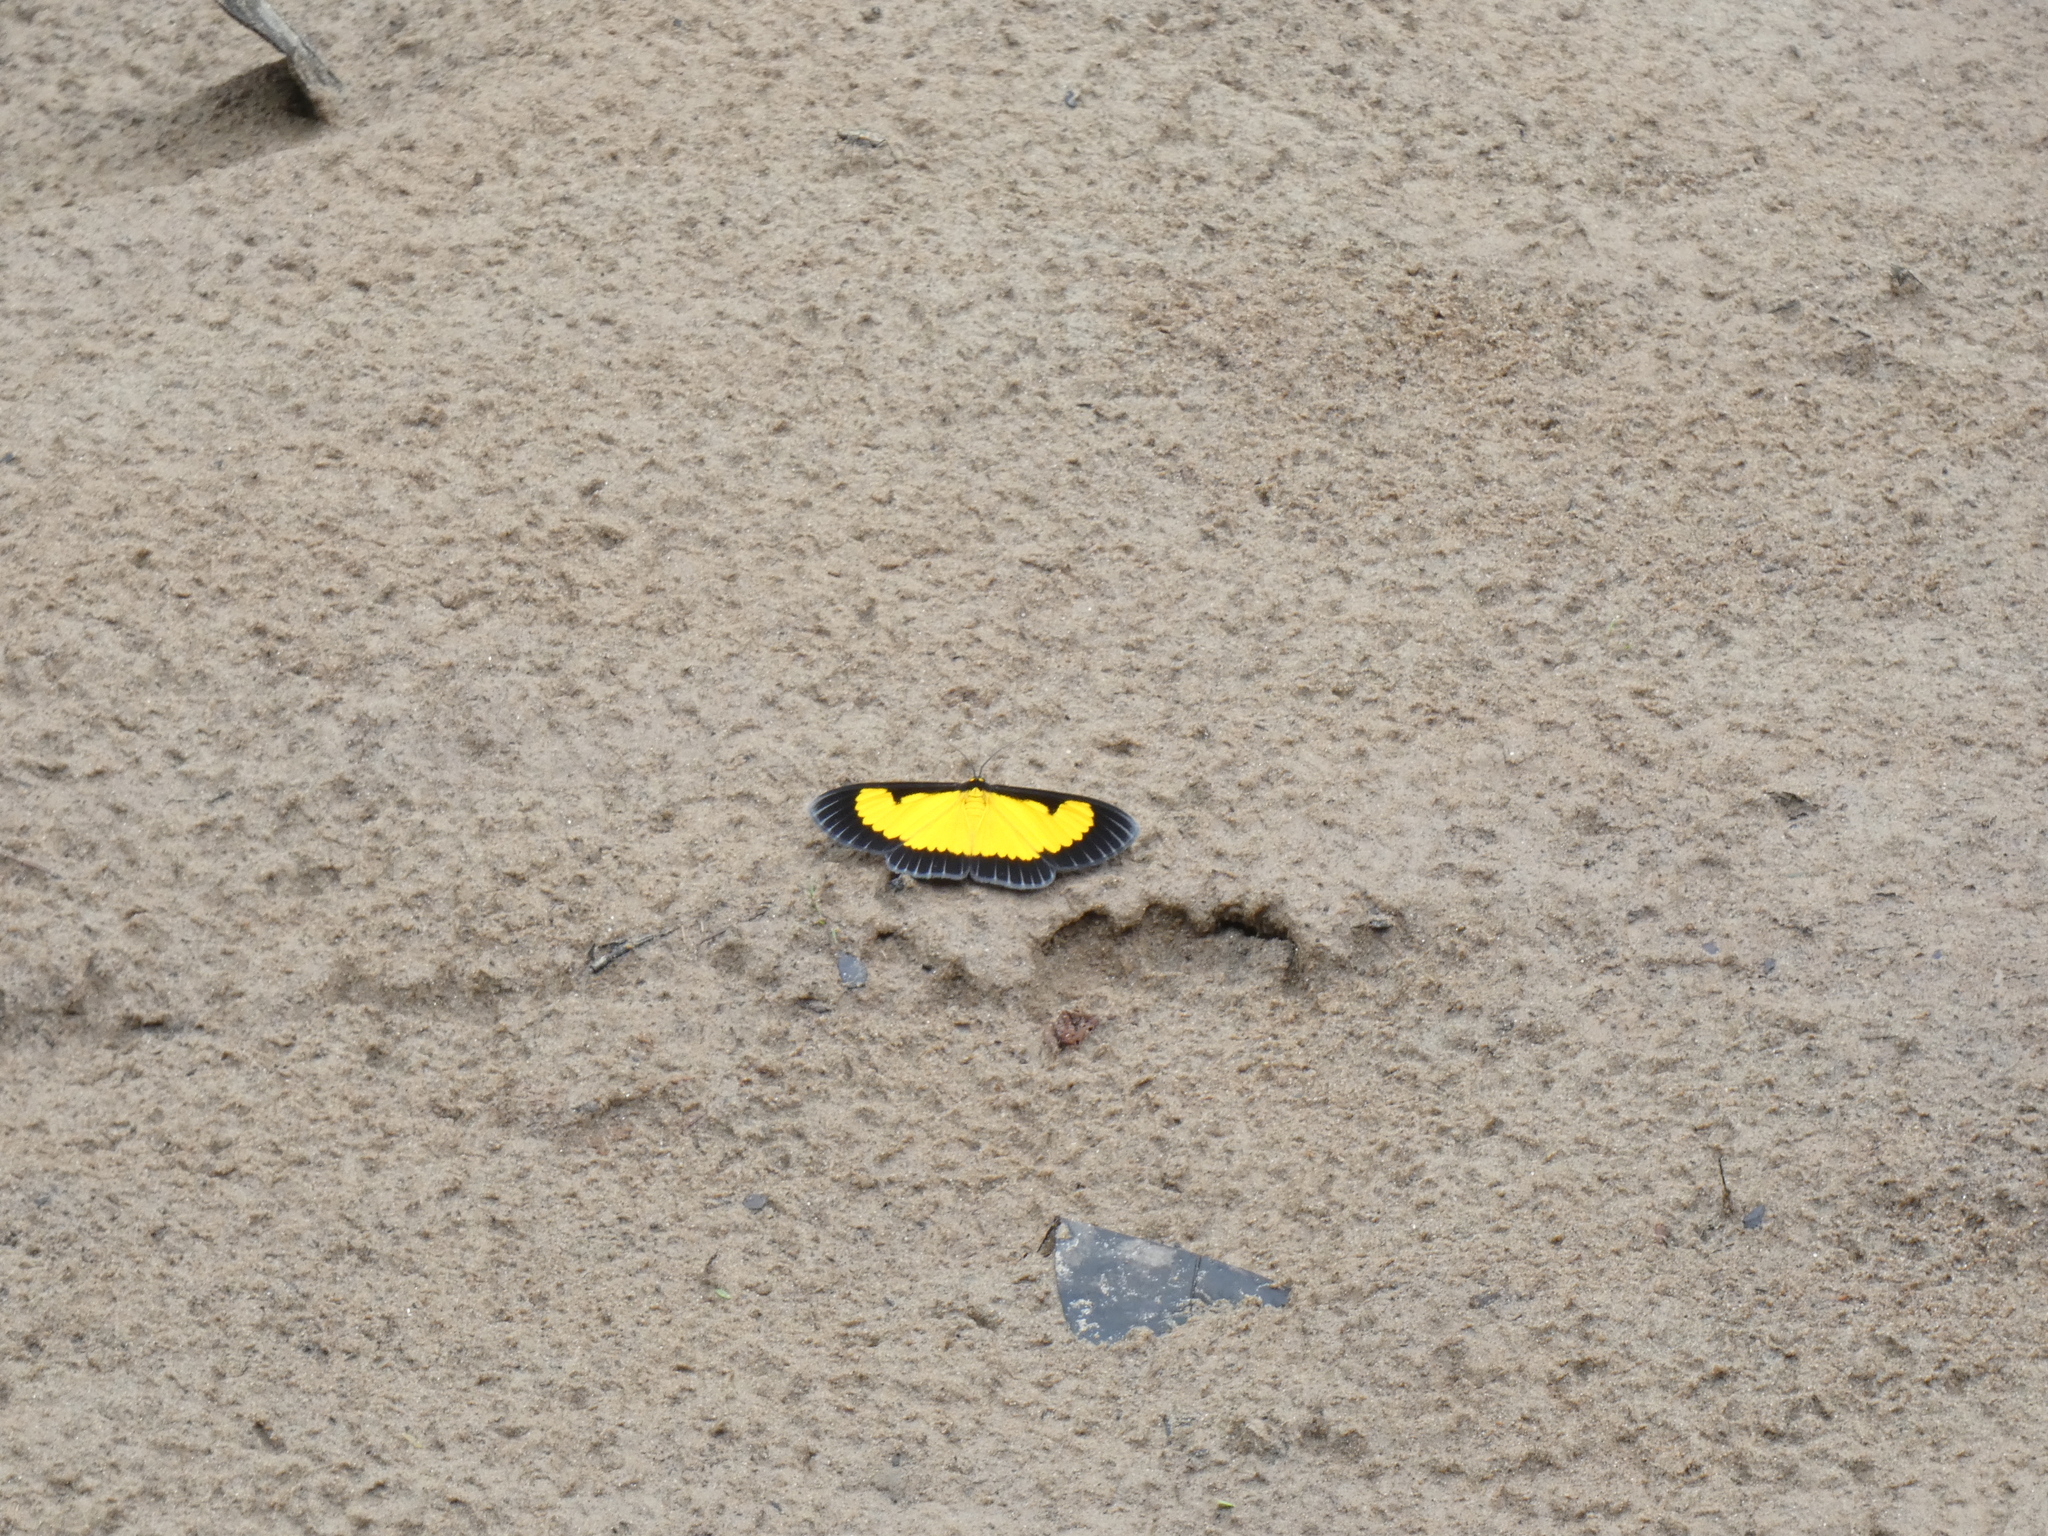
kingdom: Animalia
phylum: Arthropoda
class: Insecta
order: Lepidoptera
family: Geometridae
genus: Xanthyris
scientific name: Xanthyris flaveolata
